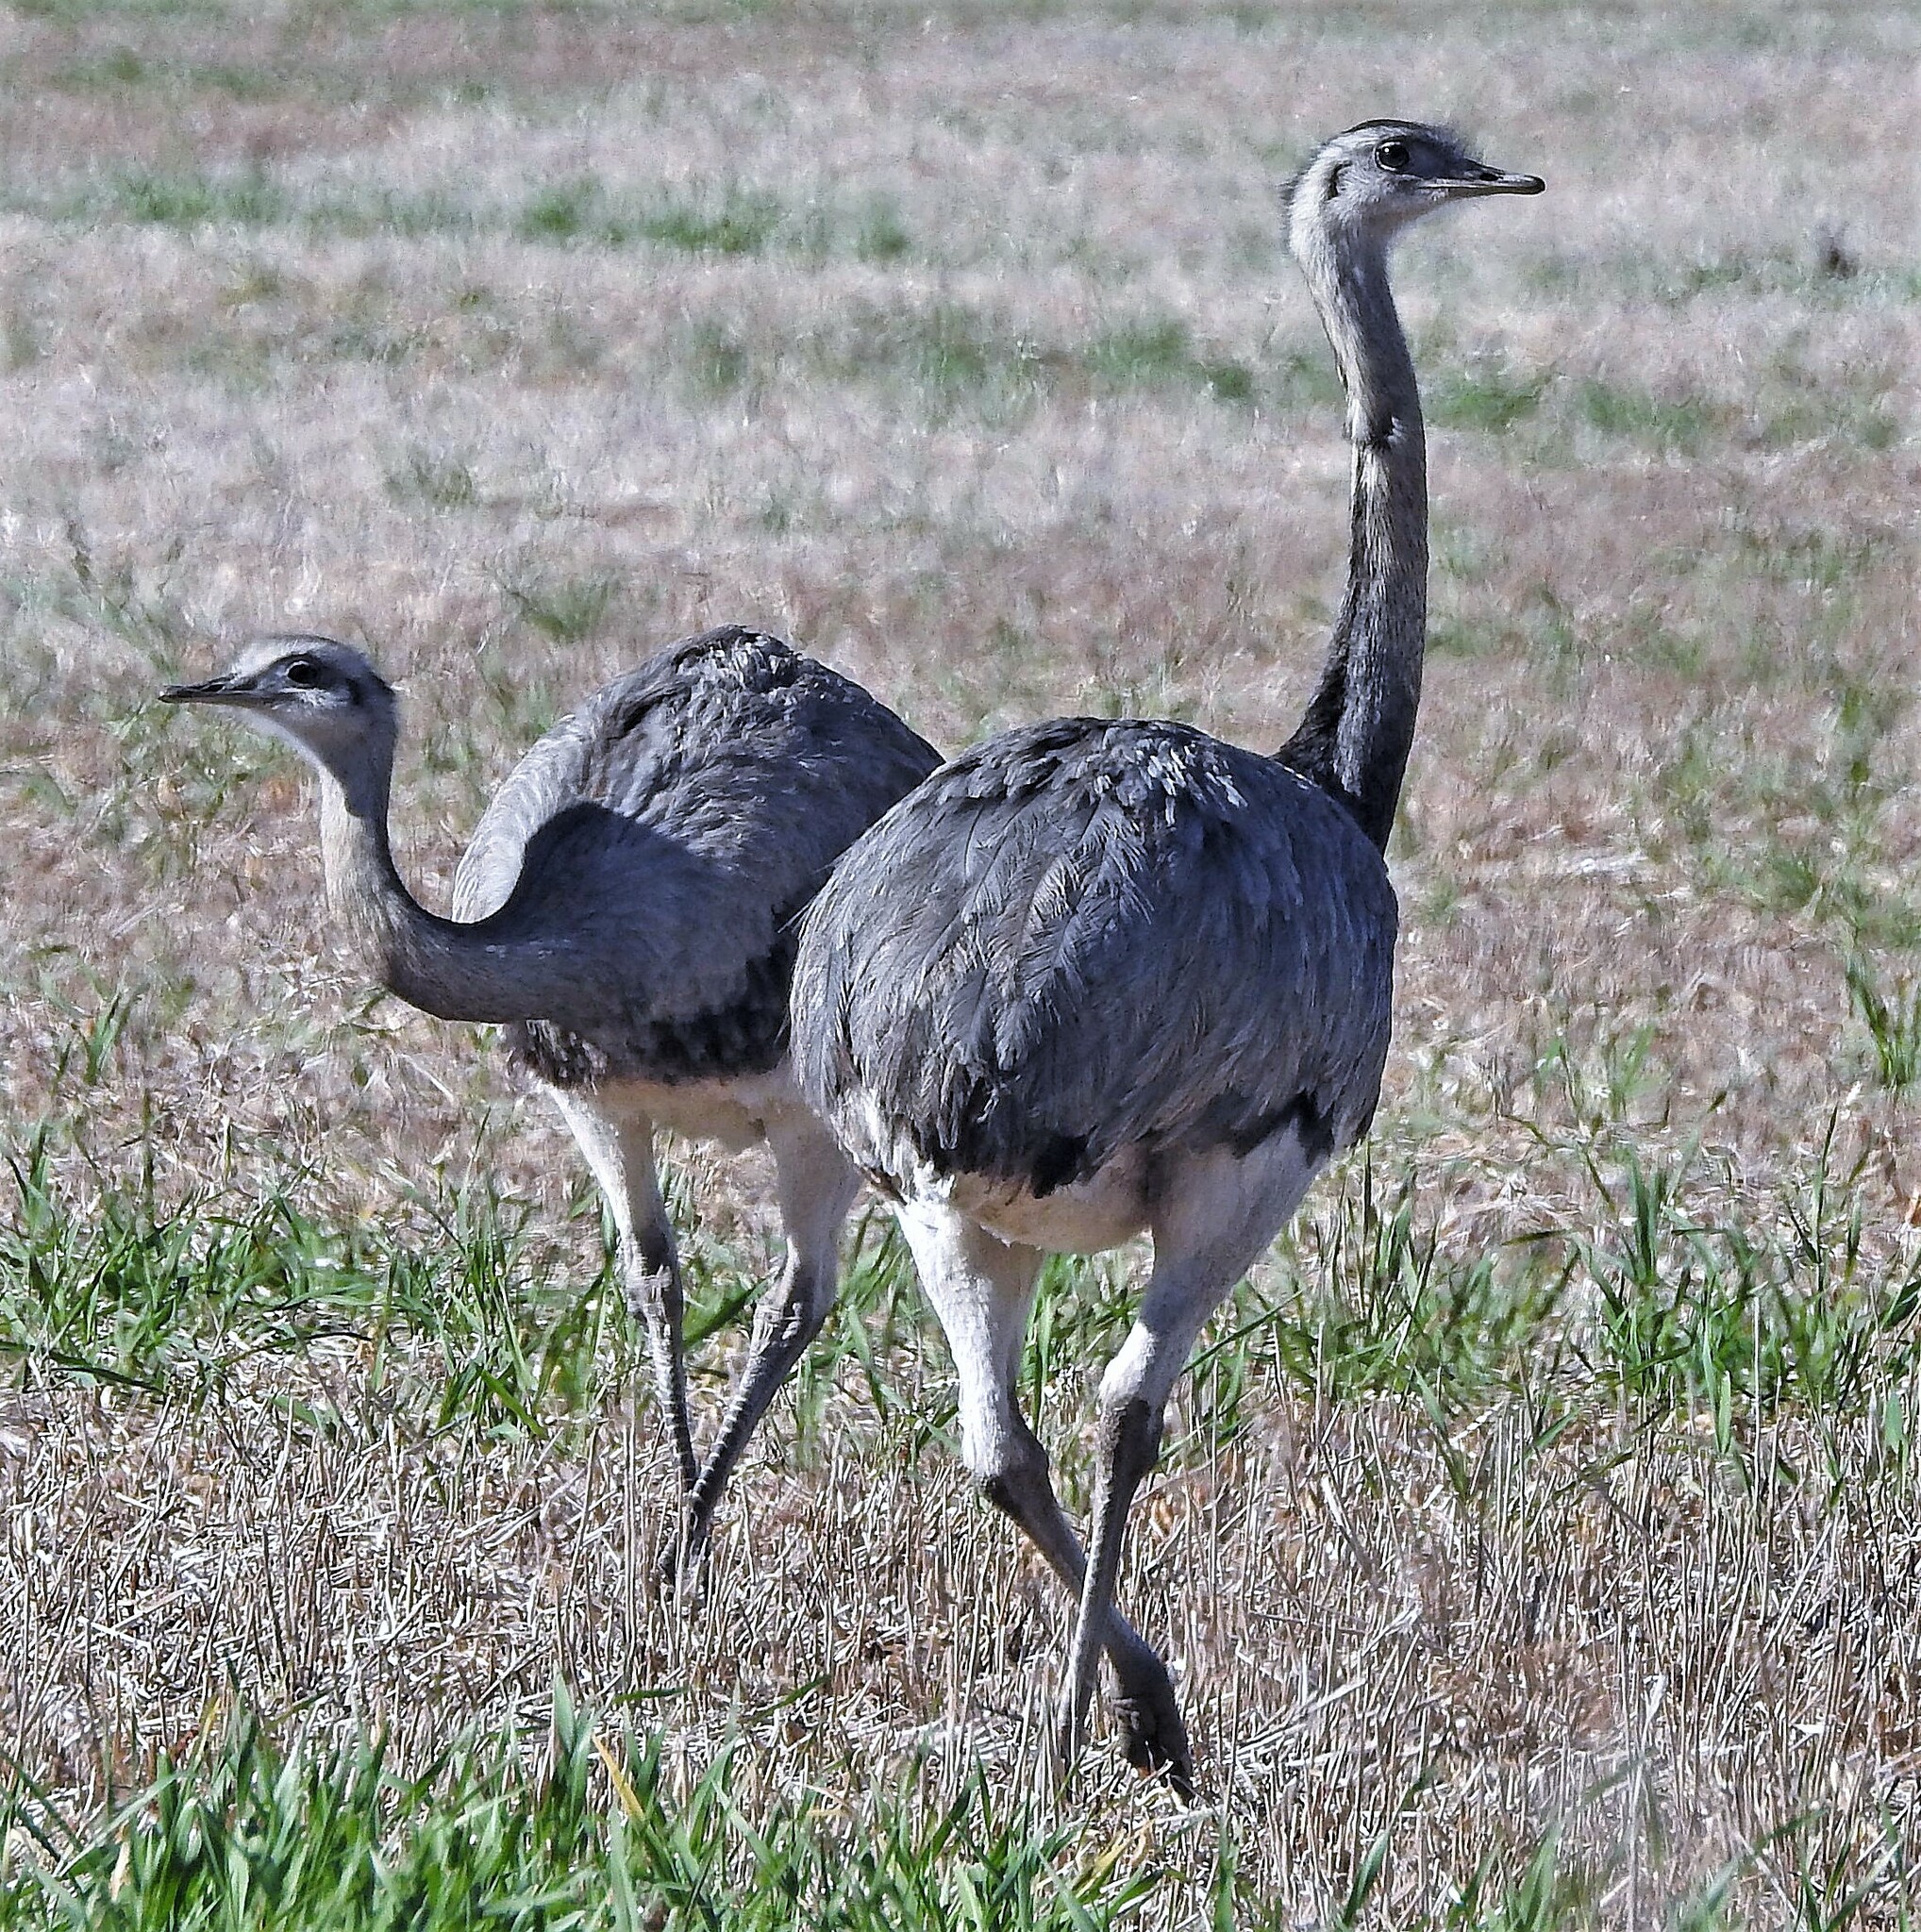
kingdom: Animalia
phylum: Chordata
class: Aves
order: Rheiformes
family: Rheidae
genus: Rhea
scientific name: Rhea americana
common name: Greater rhea
